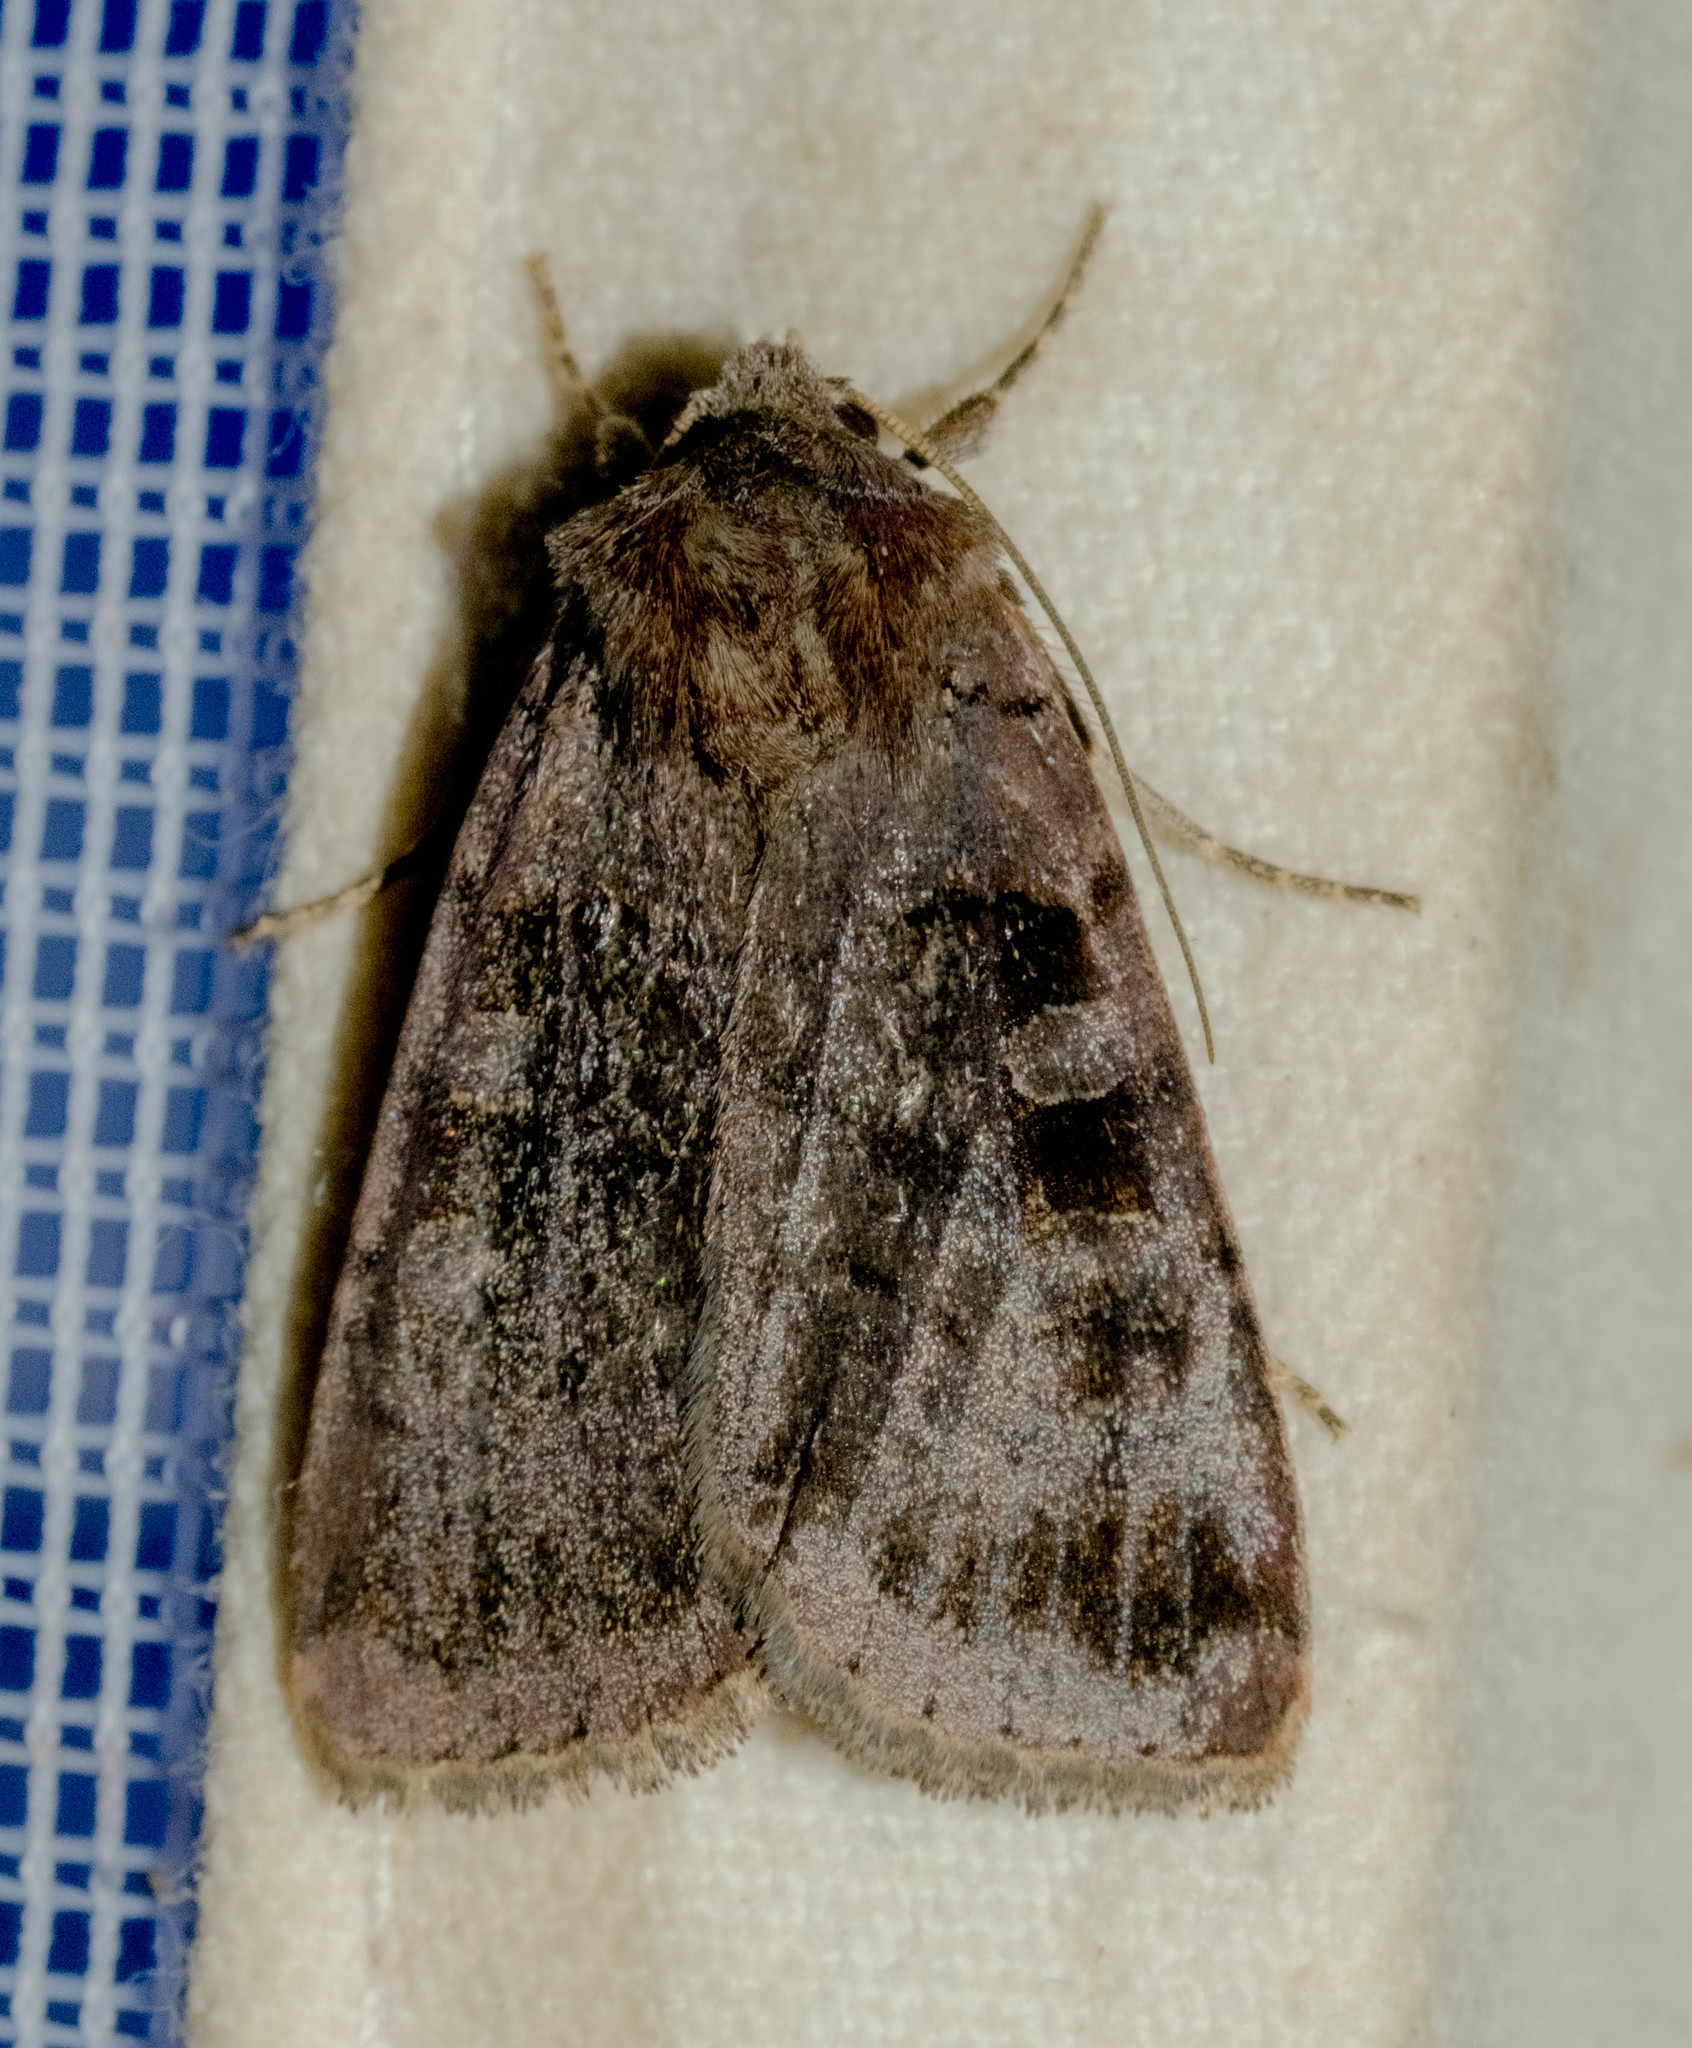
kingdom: Animalia
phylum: Arthropoda
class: Insecta
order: Lepidoptera
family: Noctuidae
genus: Xestia
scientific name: Xestia stigmatica
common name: Square-spotted clay
